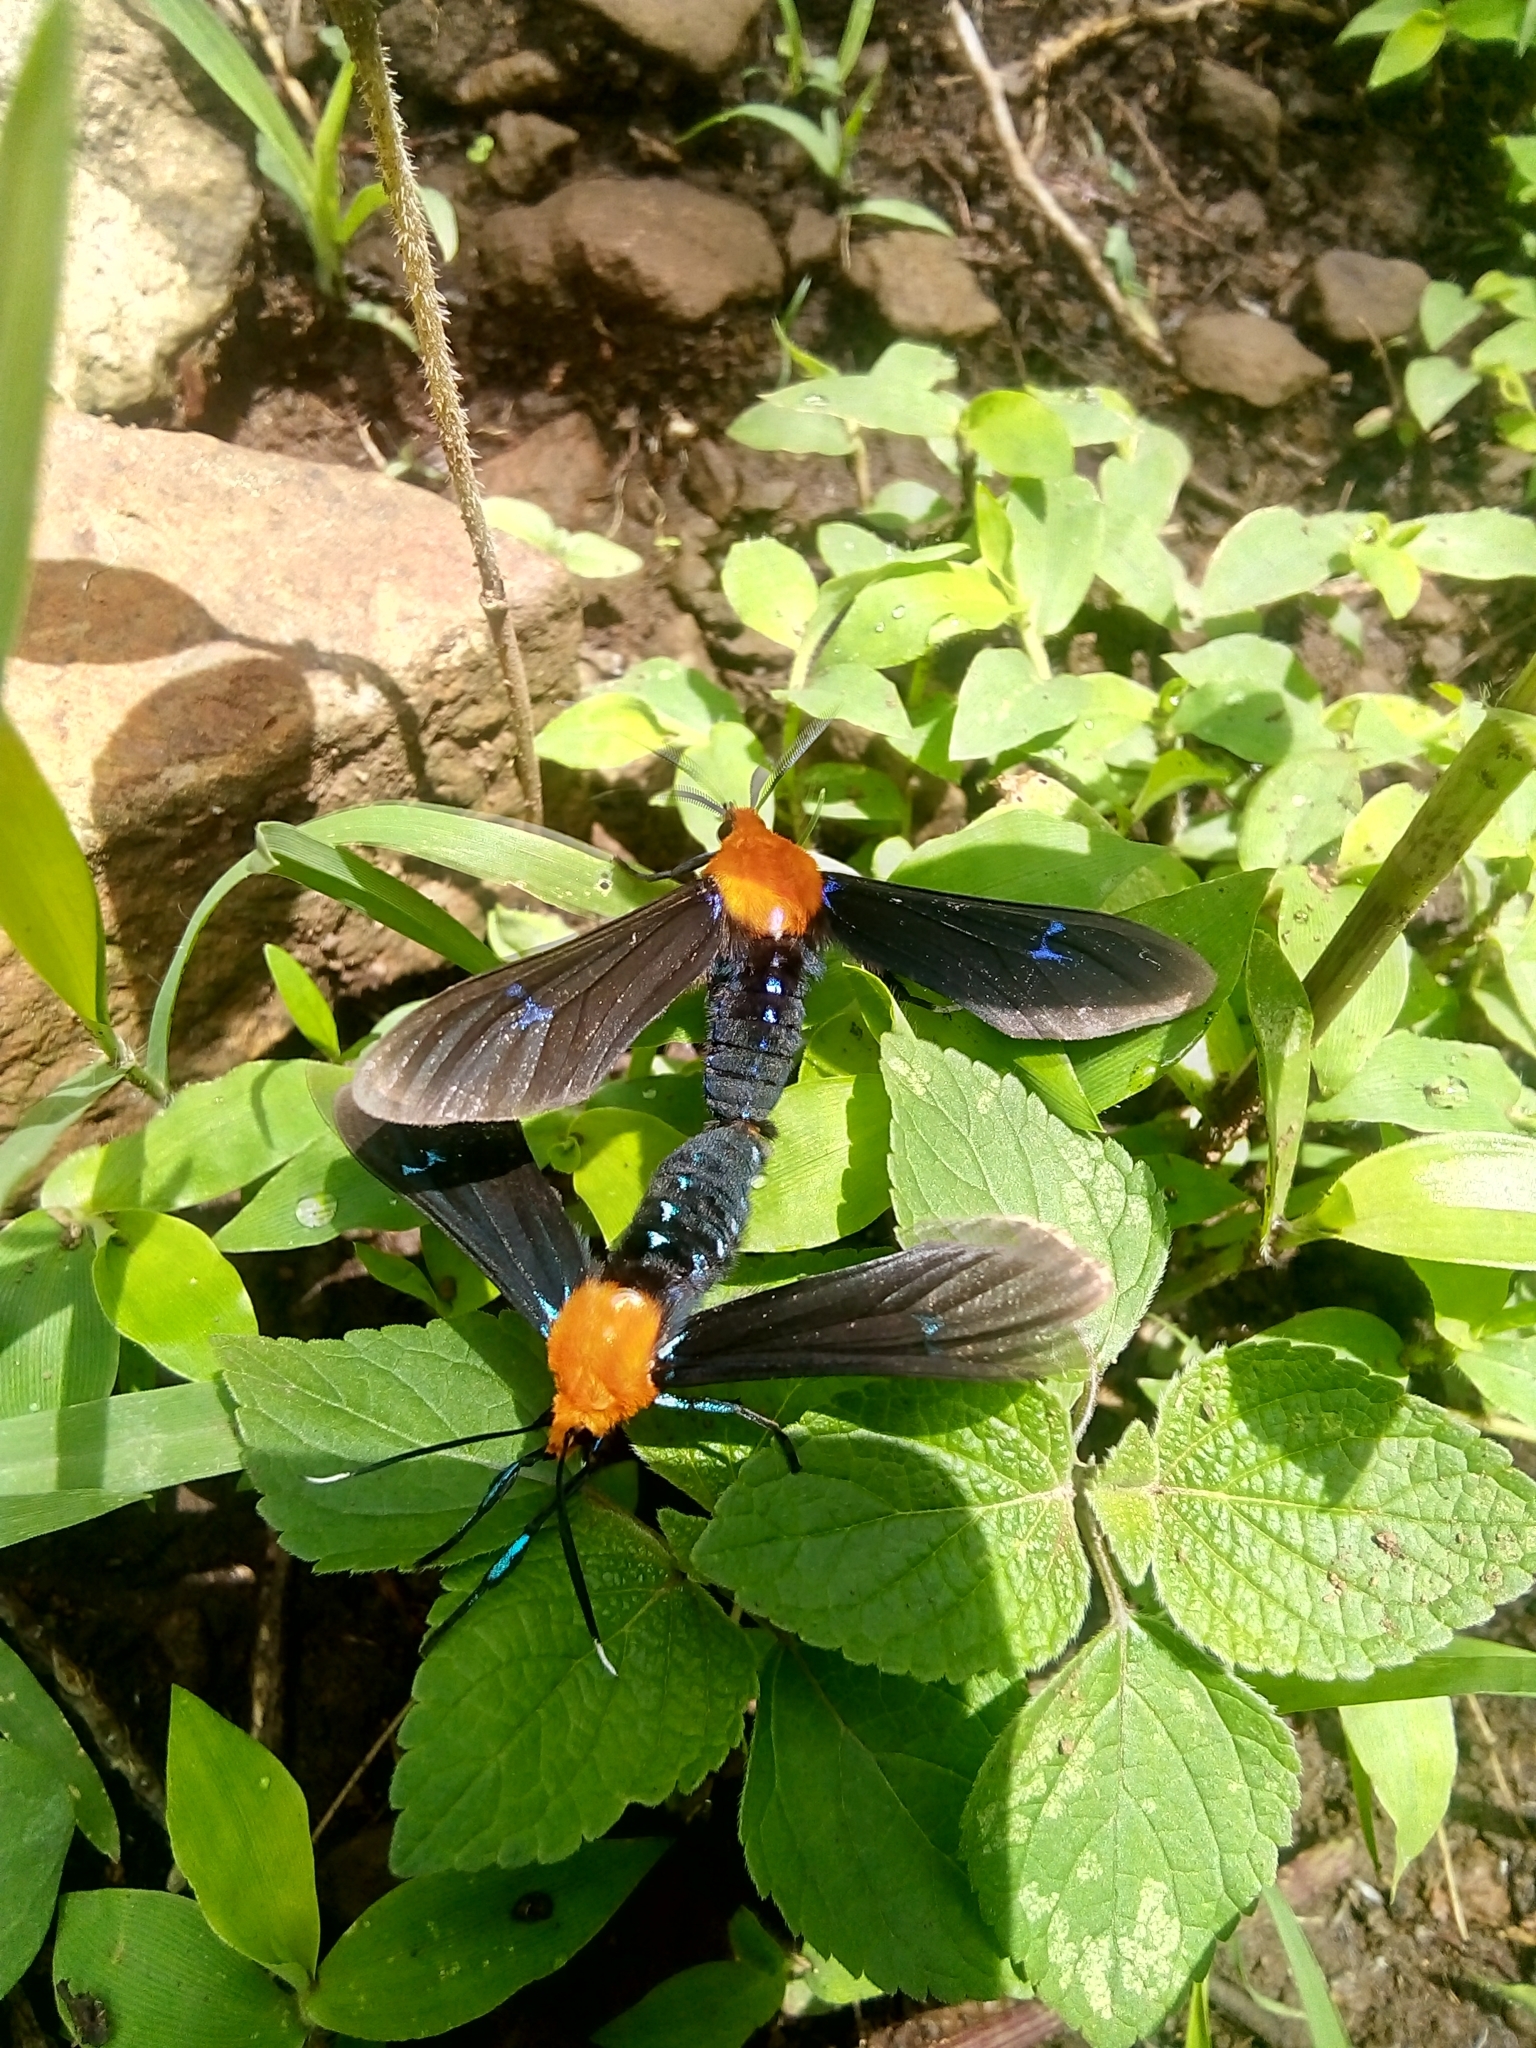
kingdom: Animalia
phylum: Arthropoda
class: Insecta
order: Lepidoptera
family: Erebidae
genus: Scena
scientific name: Scena propylea
